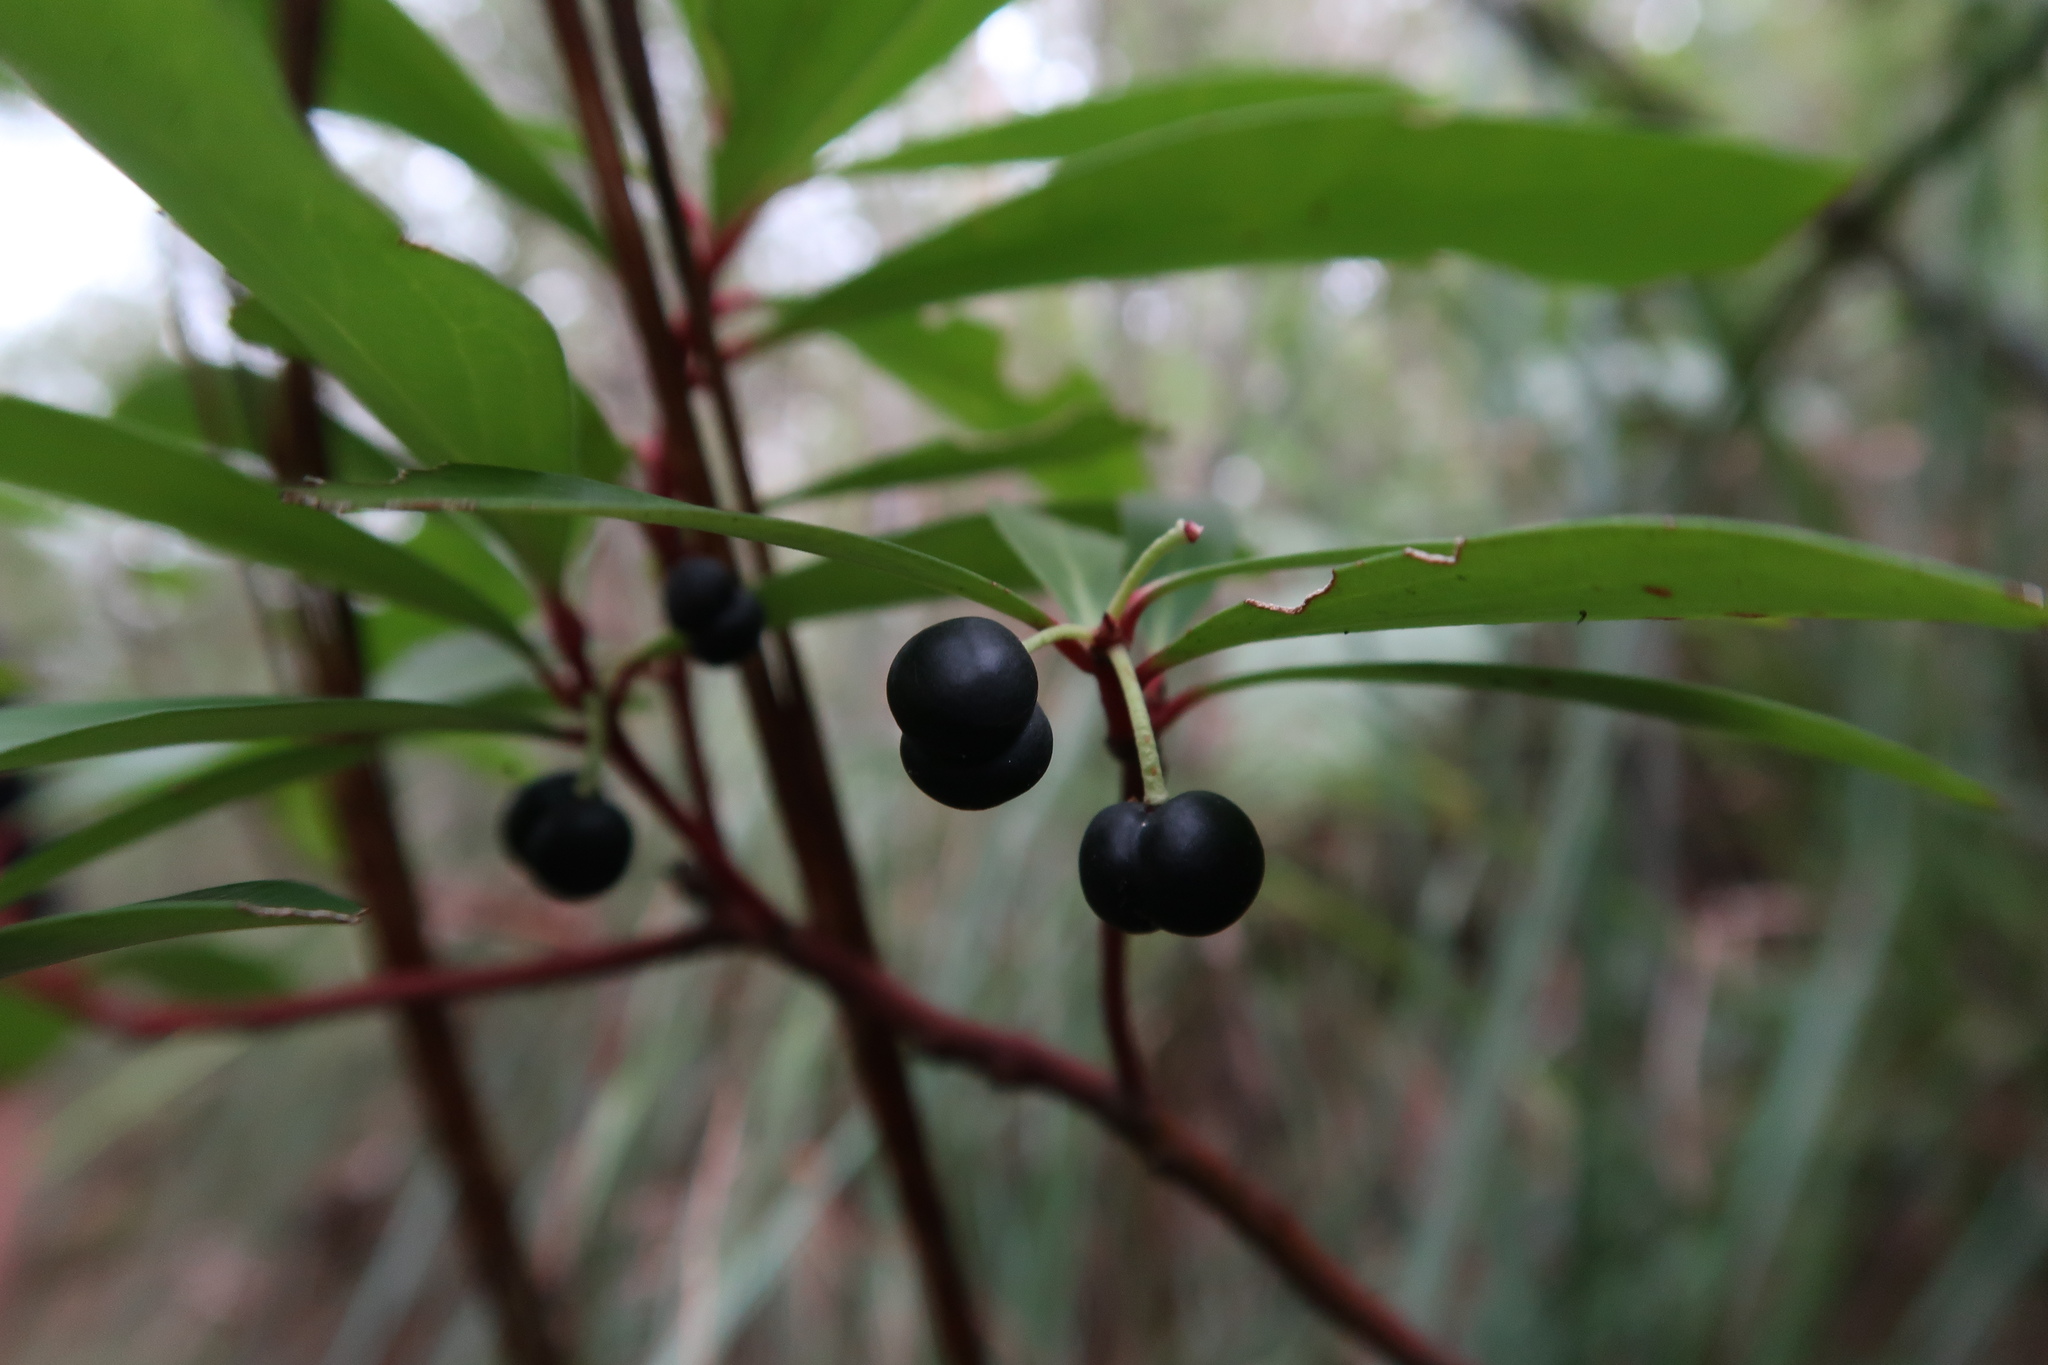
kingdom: Plantae
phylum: Tracheophyta
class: Magnoliopsida
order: Canellales
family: Winteraceae
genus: Drimys
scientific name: Drimys aromatica
